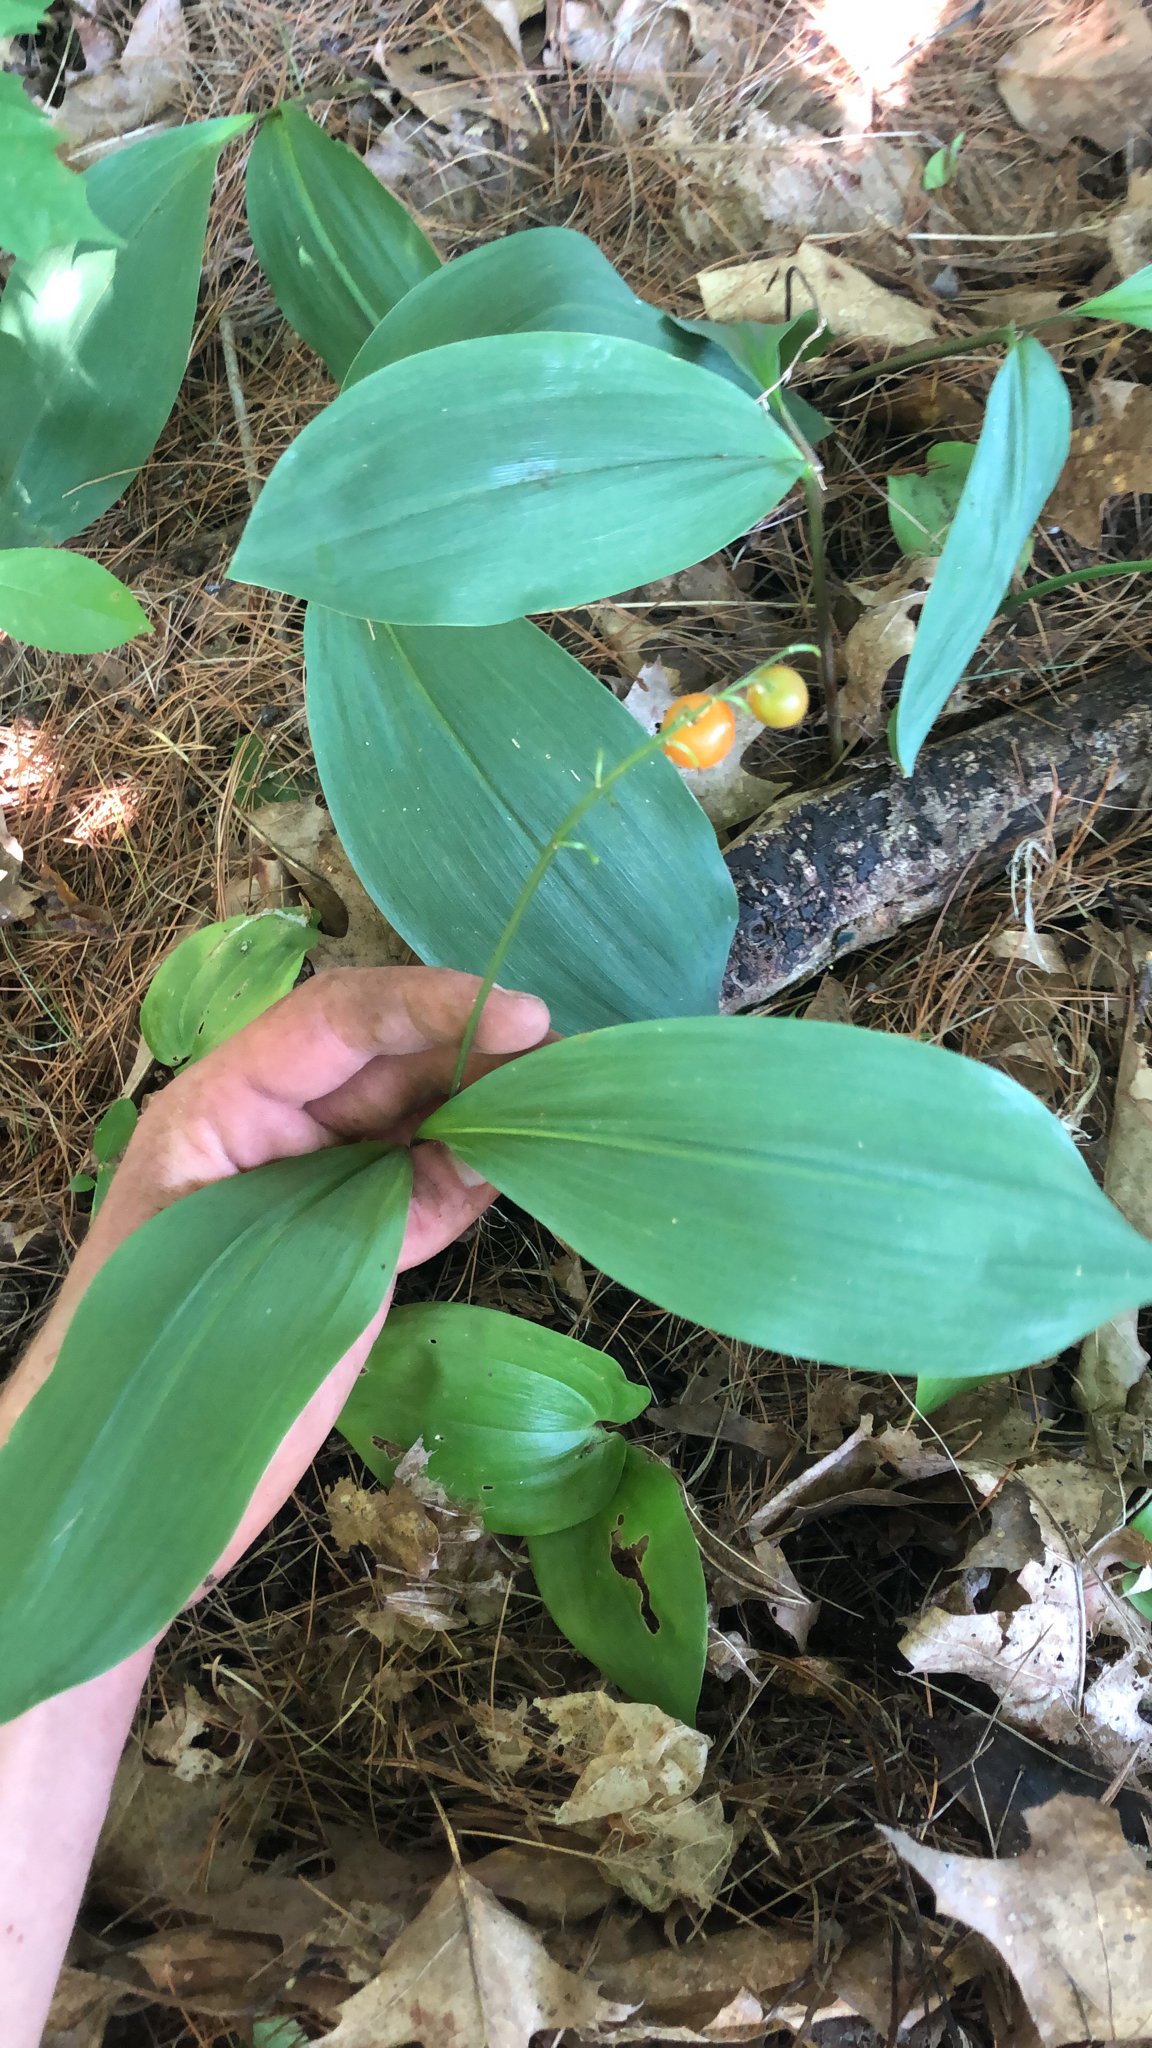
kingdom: Plantae
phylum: Tracheophyta
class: Liliopsida
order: Asparagales
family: Asparagaceae
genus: Convallaria
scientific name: Convallaria majalis
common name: Lily-of-the-valley
